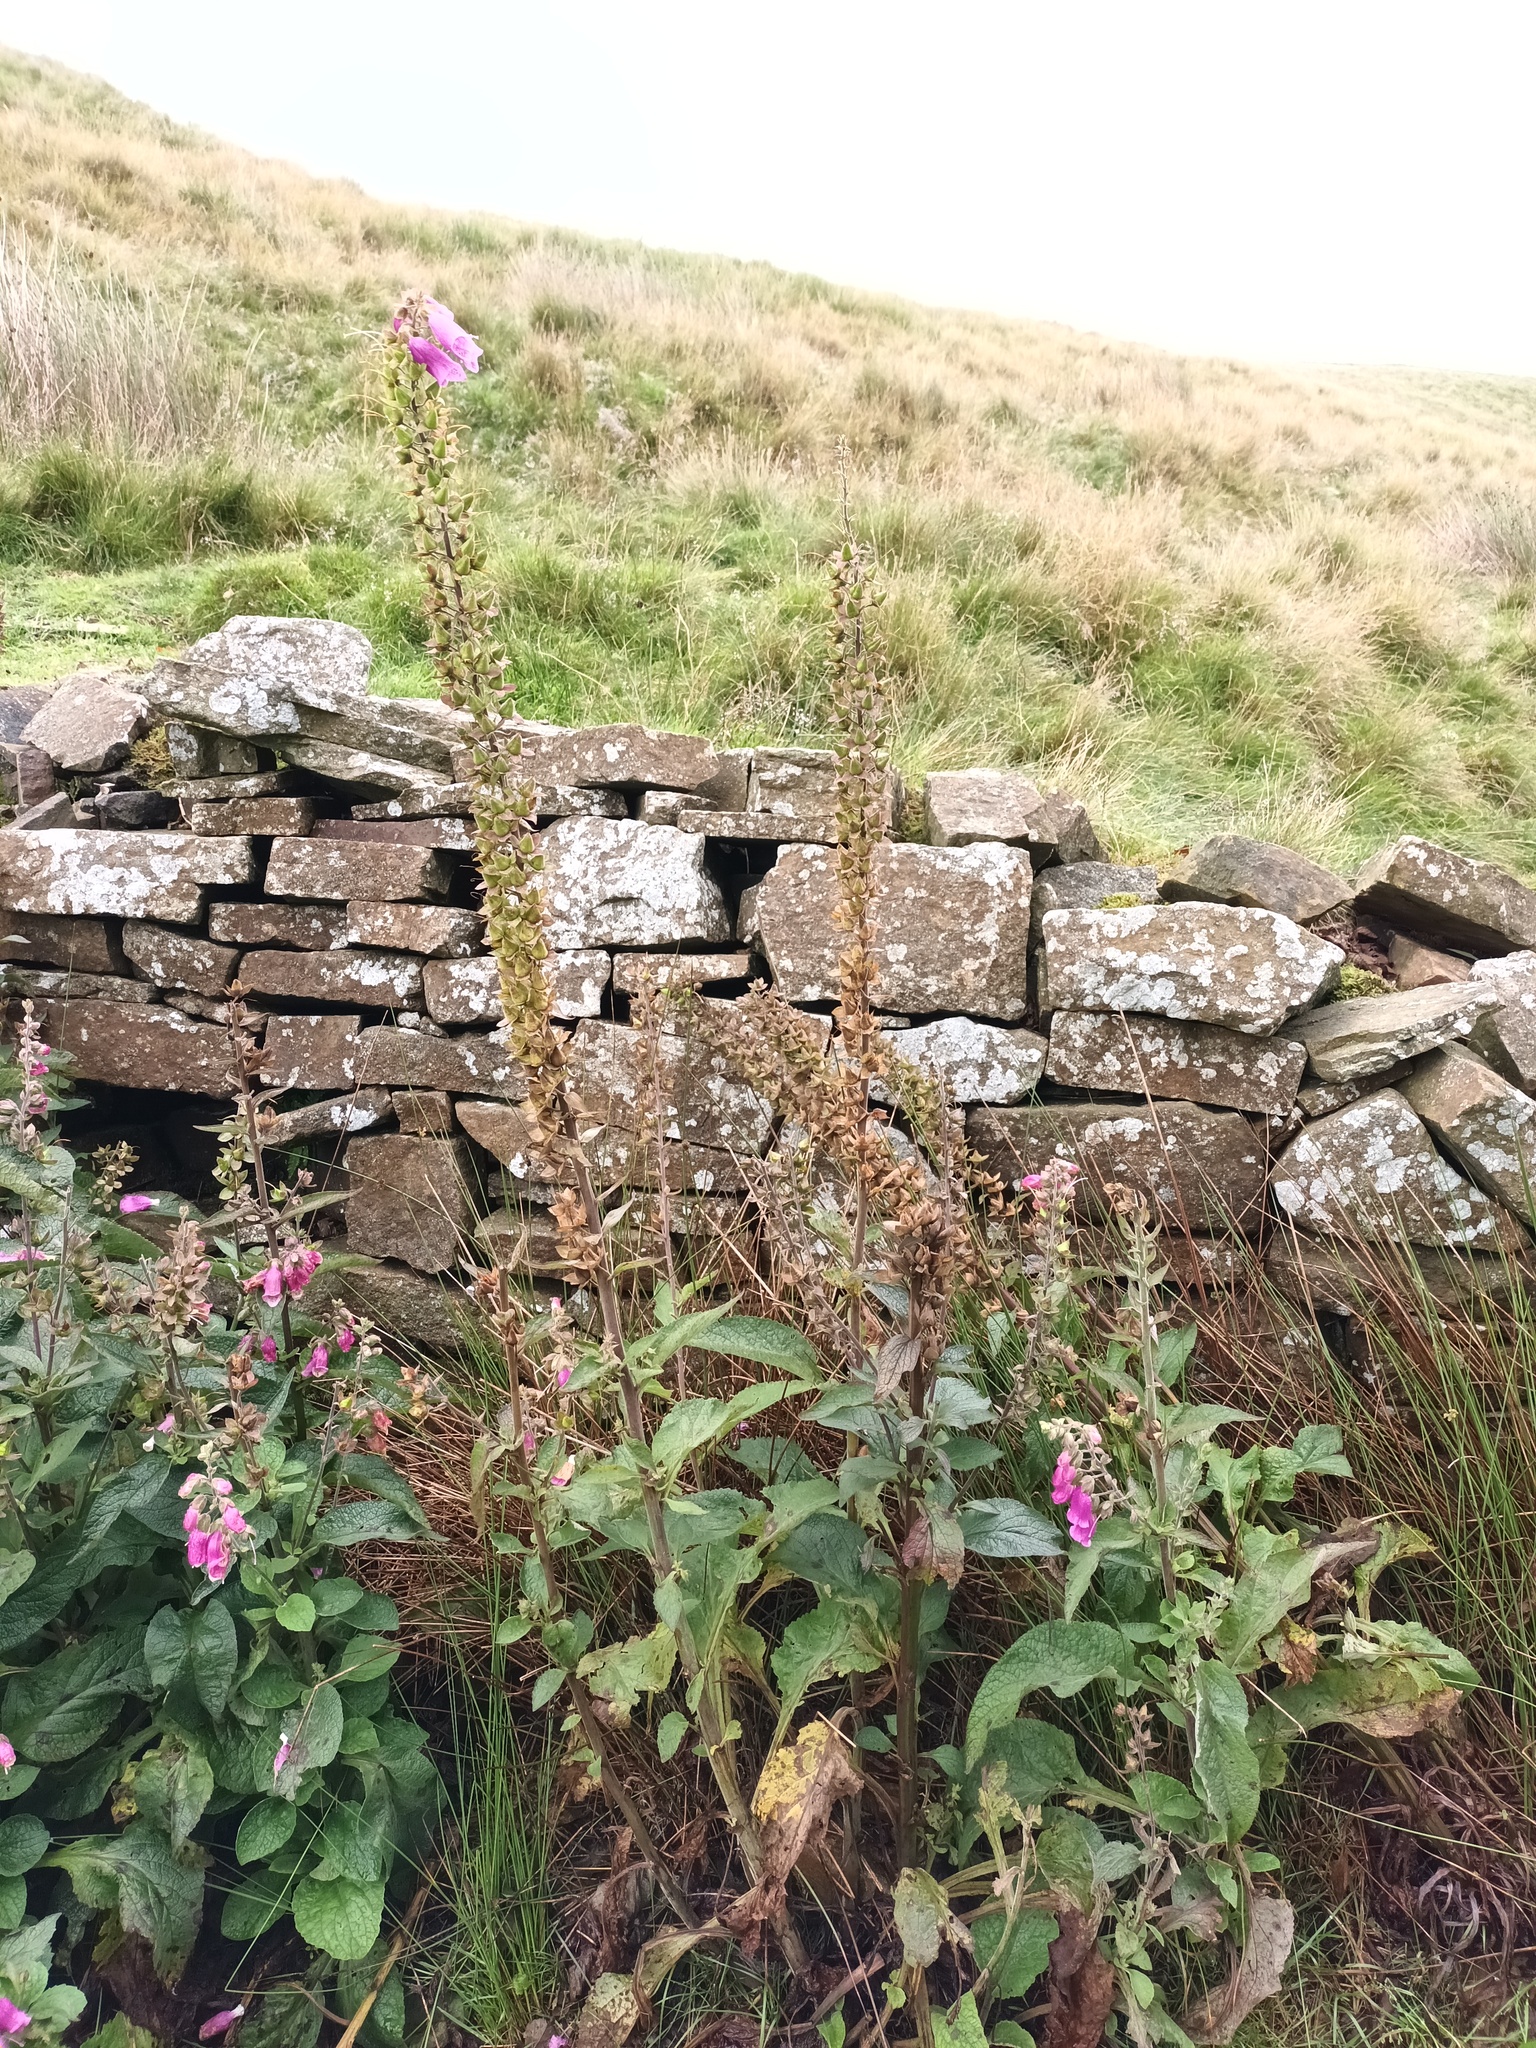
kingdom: Plantae
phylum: Tracheophyta
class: Magnoliopsida
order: Lamiales
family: Plantaginaceae
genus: Digitalis
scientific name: Digitalis purpurea
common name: Foxglove
